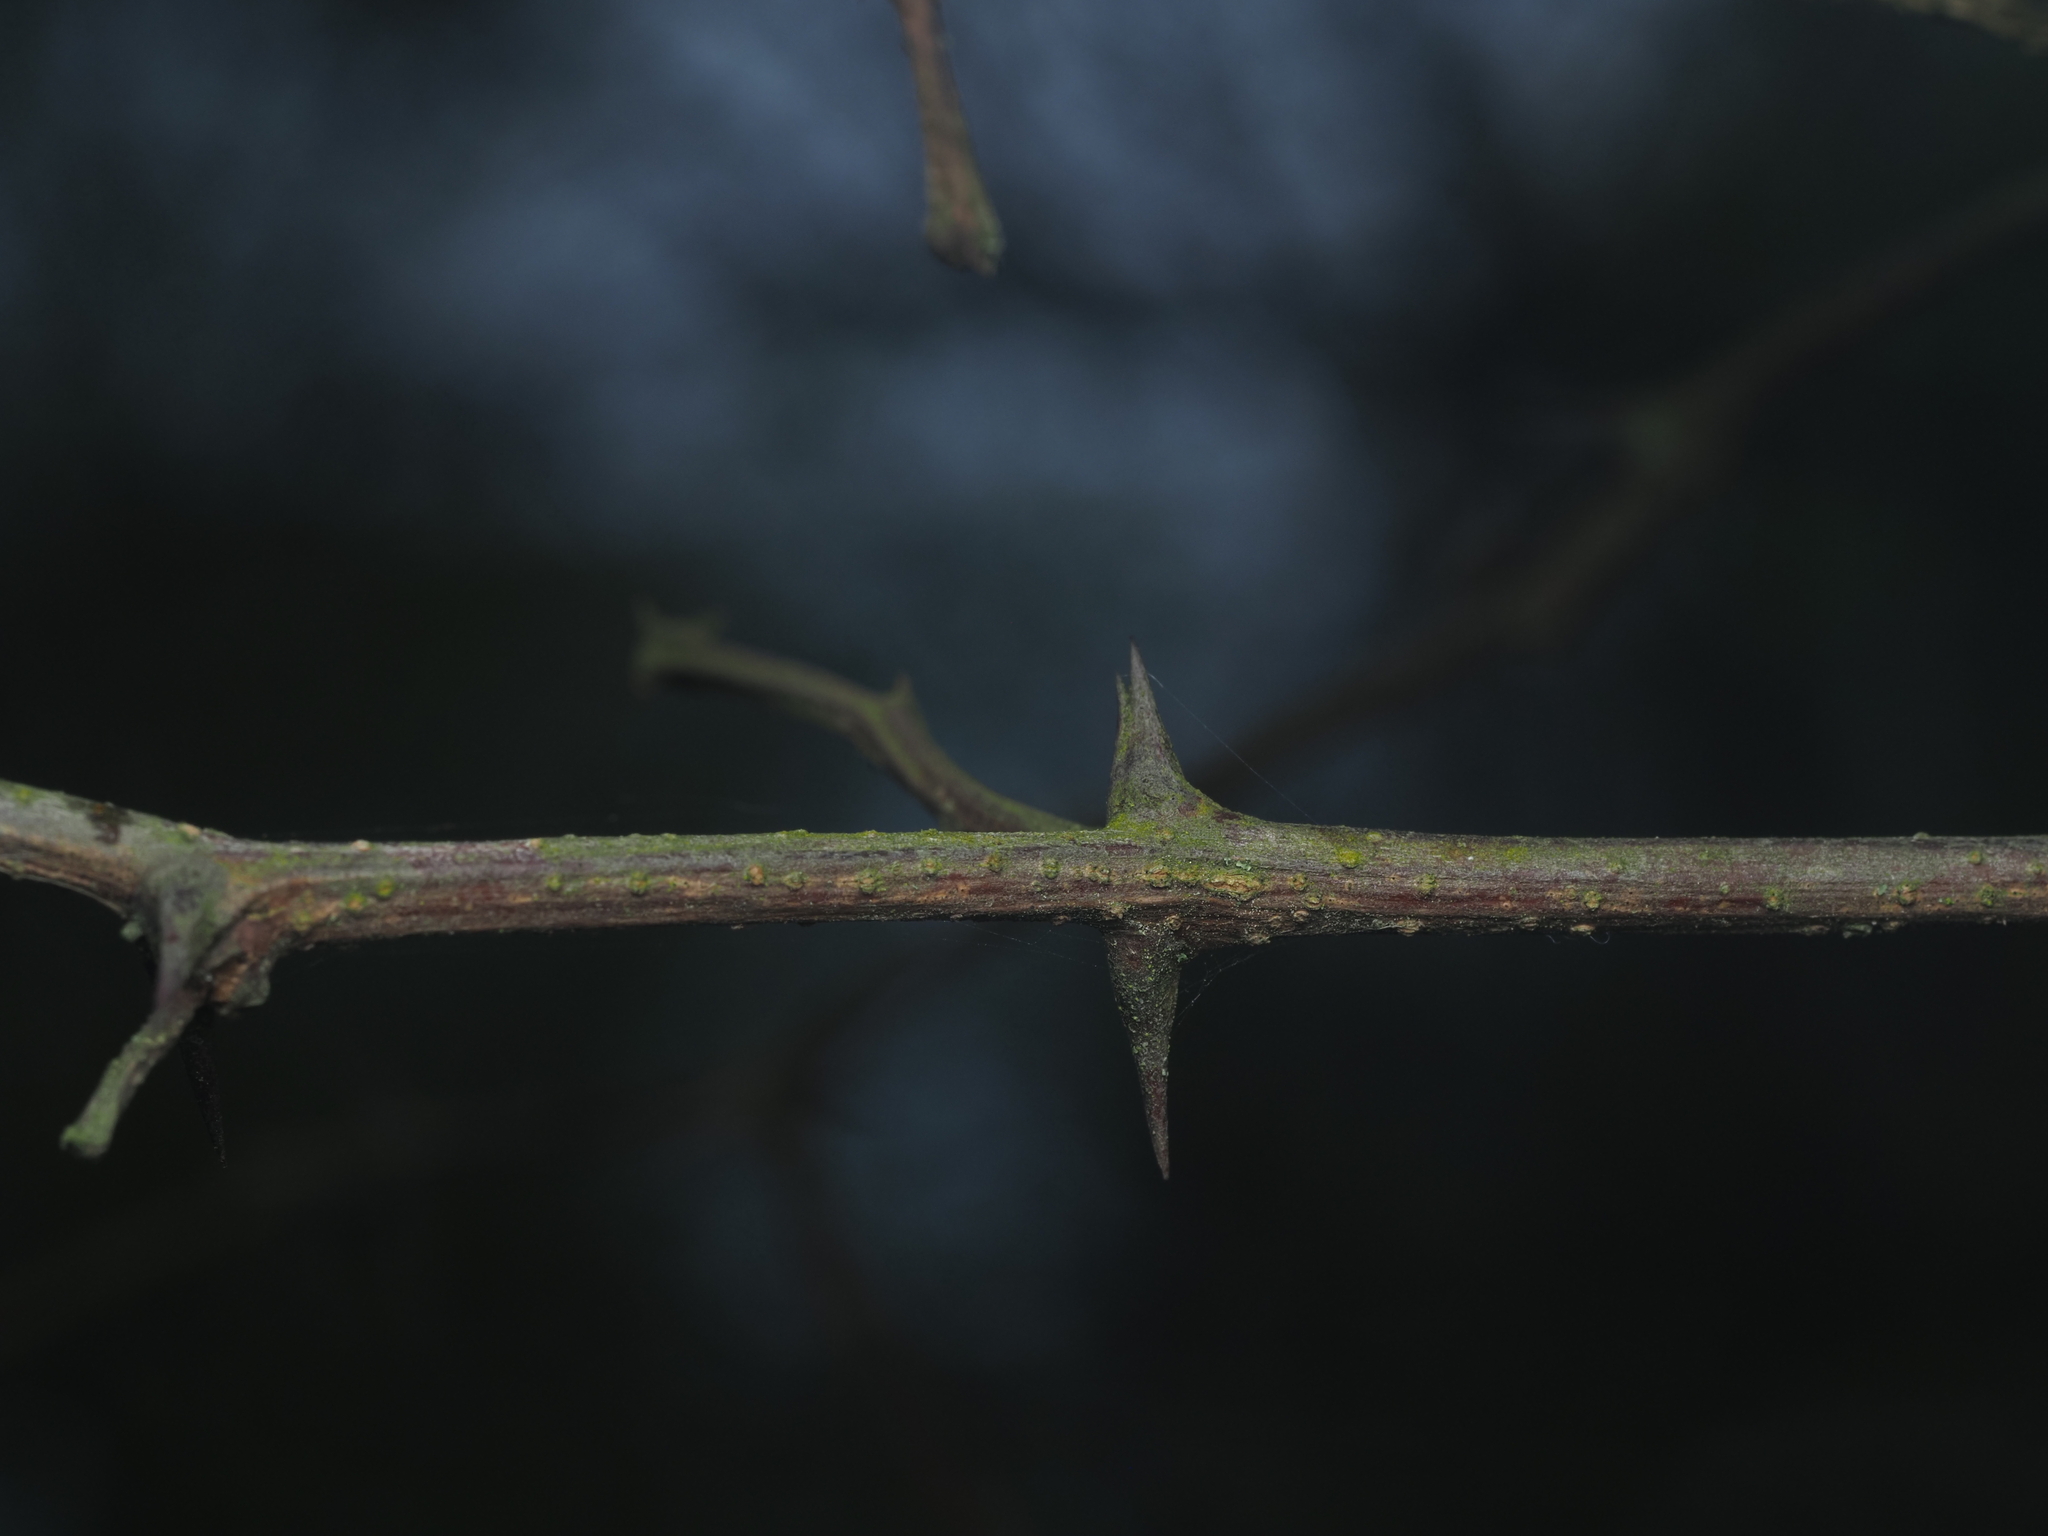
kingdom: Plantae
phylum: Tracheophyta
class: Magnoliopsida
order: Fabales
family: Fabaceae
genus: Robinia
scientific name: Robinia pseudoacacia
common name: Black locust
